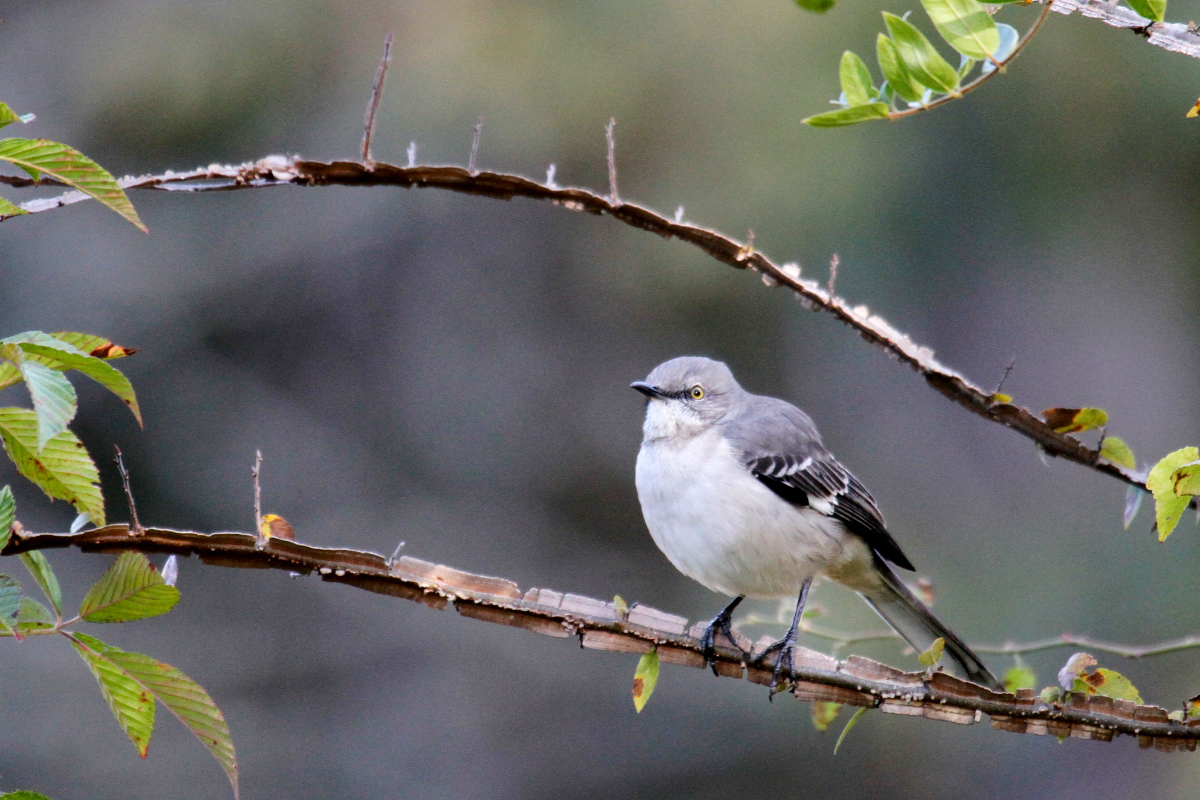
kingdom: Animalia
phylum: Chordata
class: Aves
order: Passeriformes
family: Mimidae
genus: Mimus
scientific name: Mimus polyglottos
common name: Northern mockingbird
